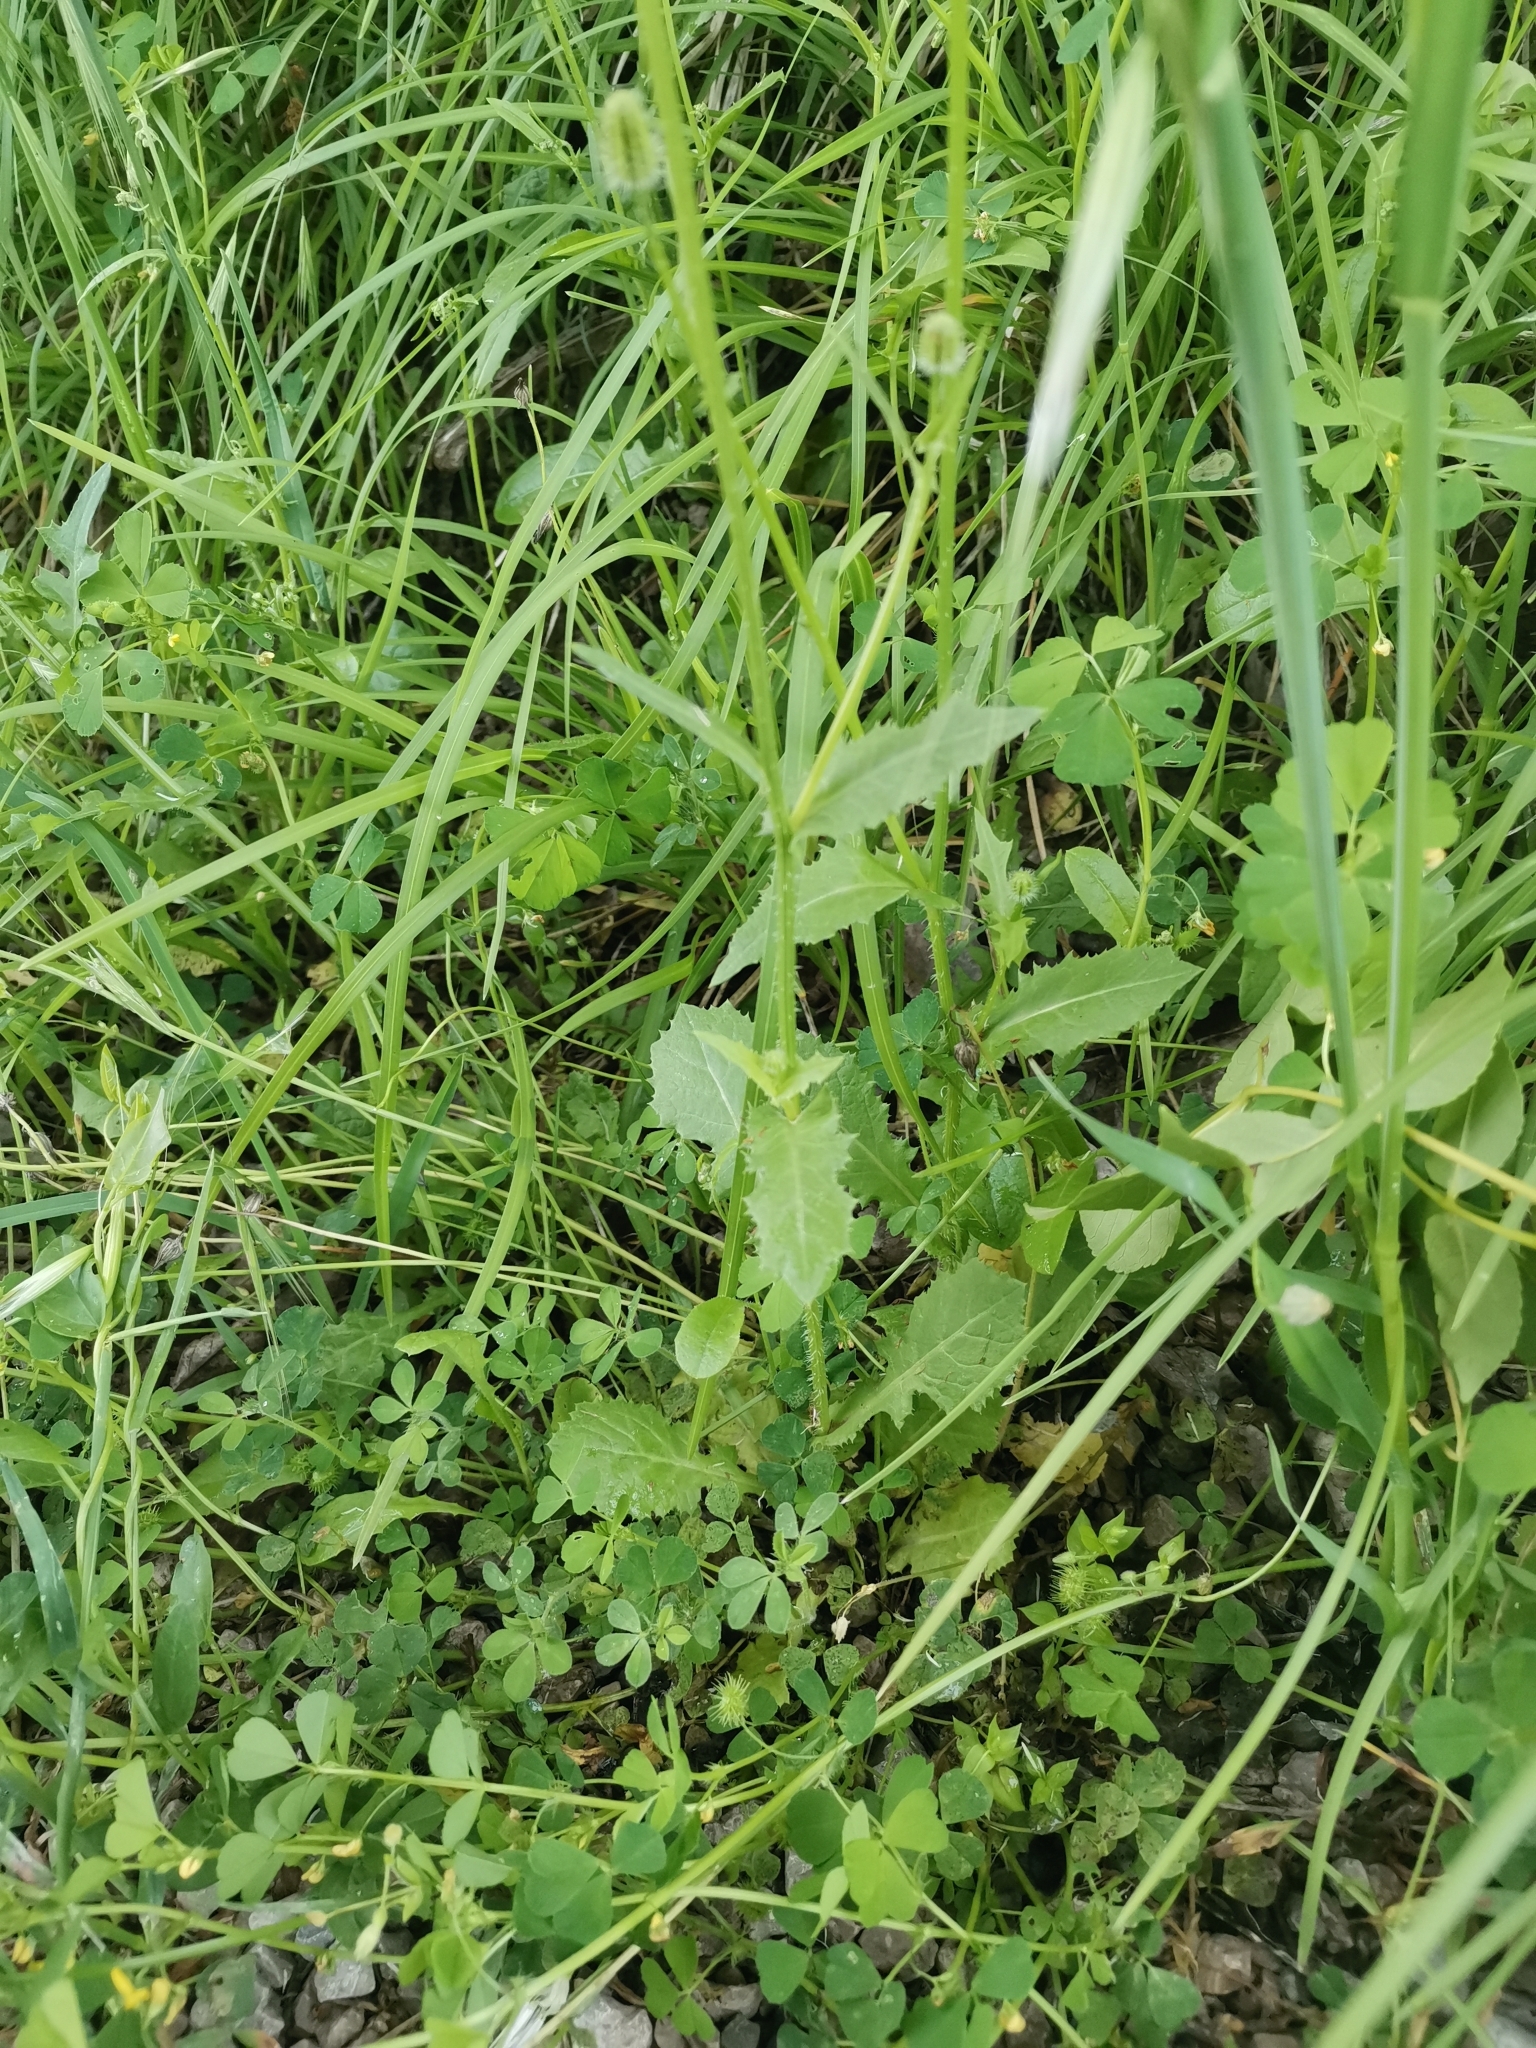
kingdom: Plantae
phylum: Tracheophyta
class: Magnoliopsida
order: Asterales
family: Asteraceae
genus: Urospermum
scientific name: Urospermum picroides
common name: False hawkbit
